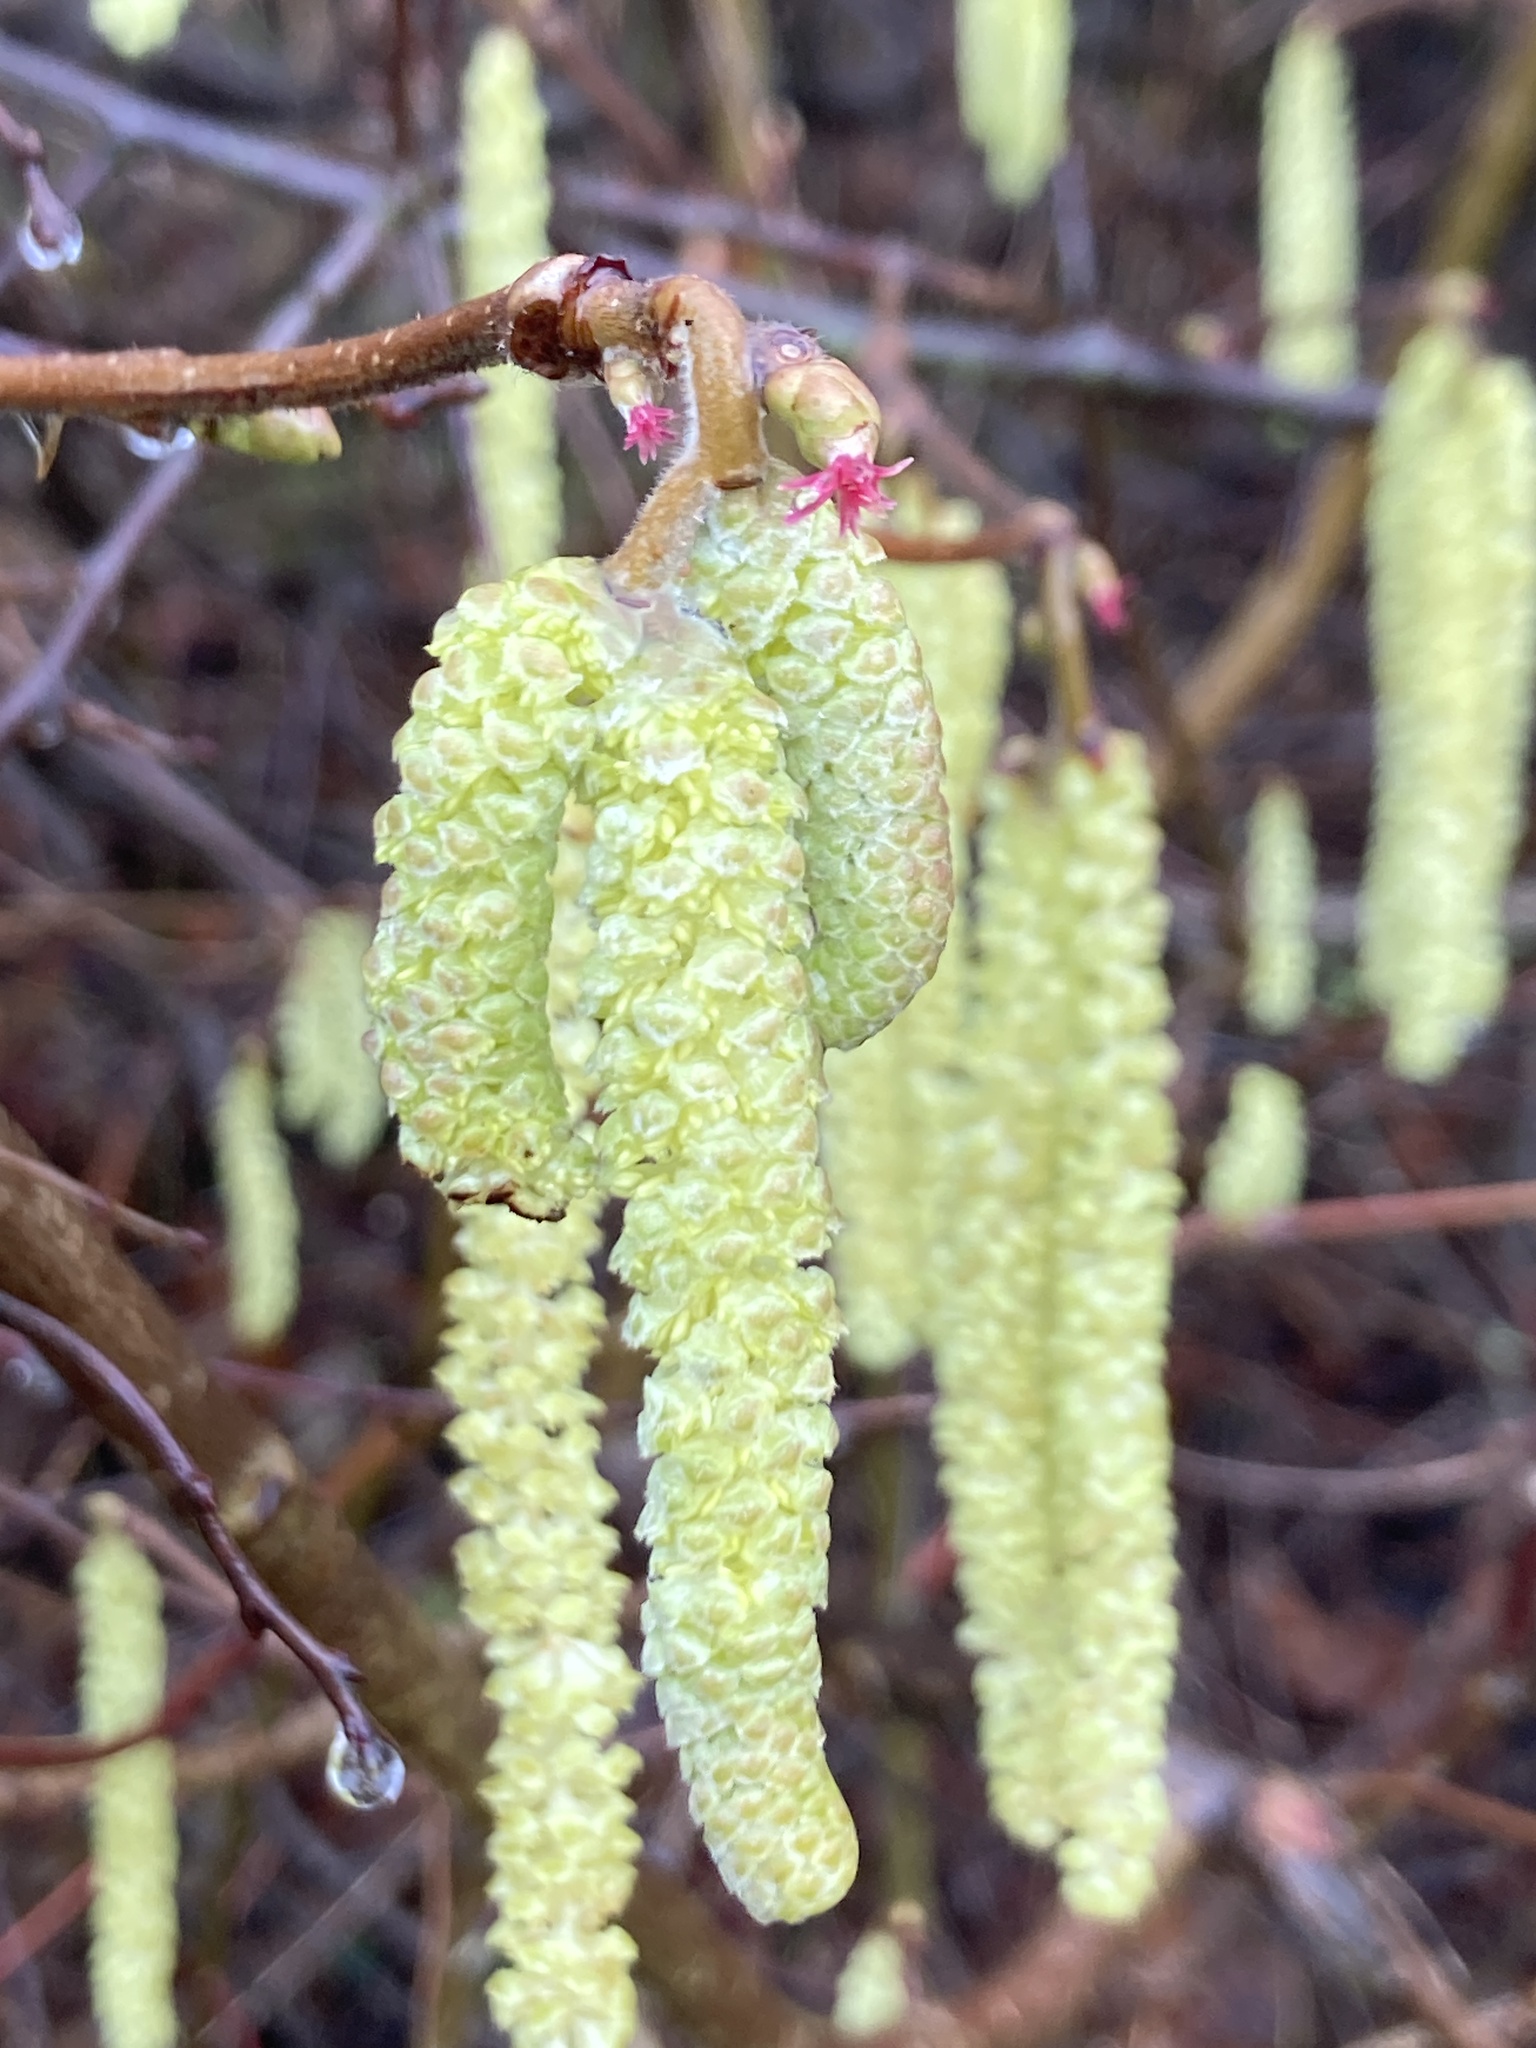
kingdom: Plantae
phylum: Tracheophyta
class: Magnoliopsida
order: Fagales
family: Betulaceae
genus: Corylus
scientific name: Corylus avellana
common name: European hazel
